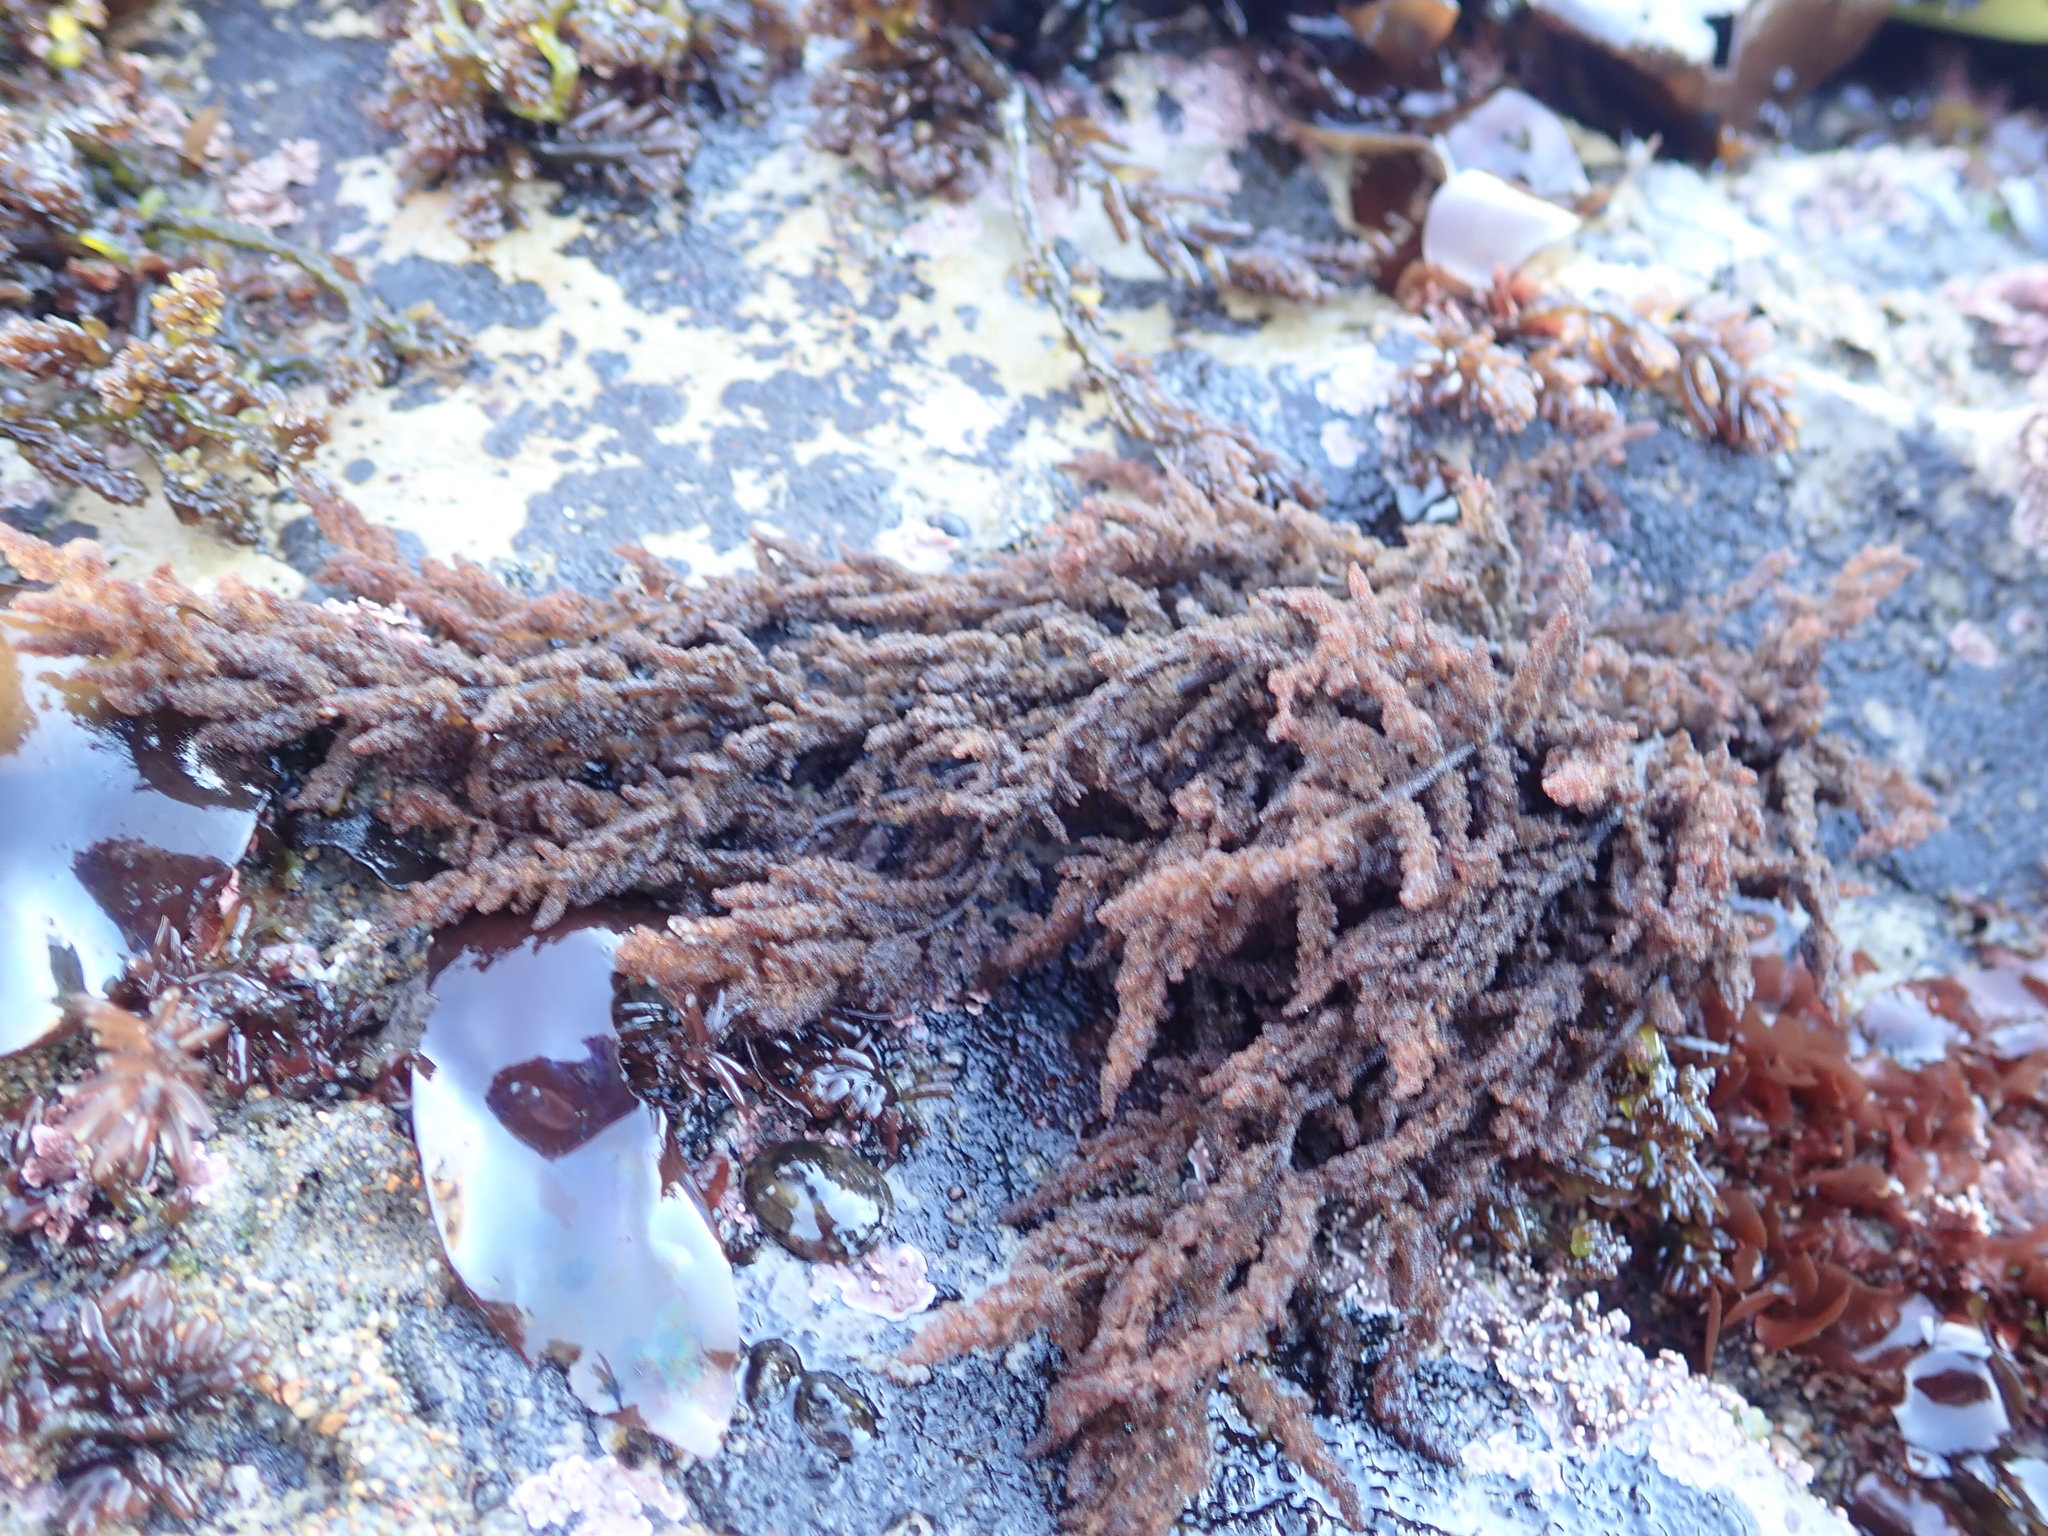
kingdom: Plantae
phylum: Rhodophyta
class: Florideophyceae
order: Ceramiales
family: Callithamniaceae
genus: Callithamnion
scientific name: Callithamnion pikeanum
